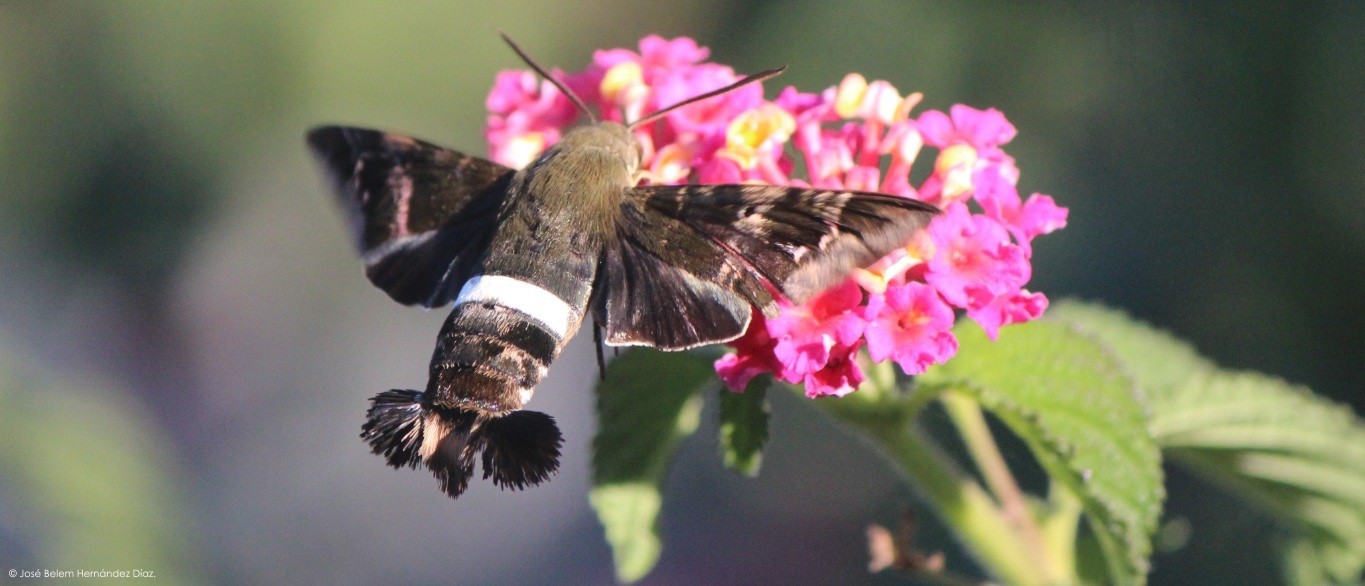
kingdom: Animalia
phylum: Arthropoda
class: Insecta
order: Lepidoptera
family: Sphingidae
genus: Aellopos
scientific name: Aellopos clavipes
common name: Clavipes sphinx
